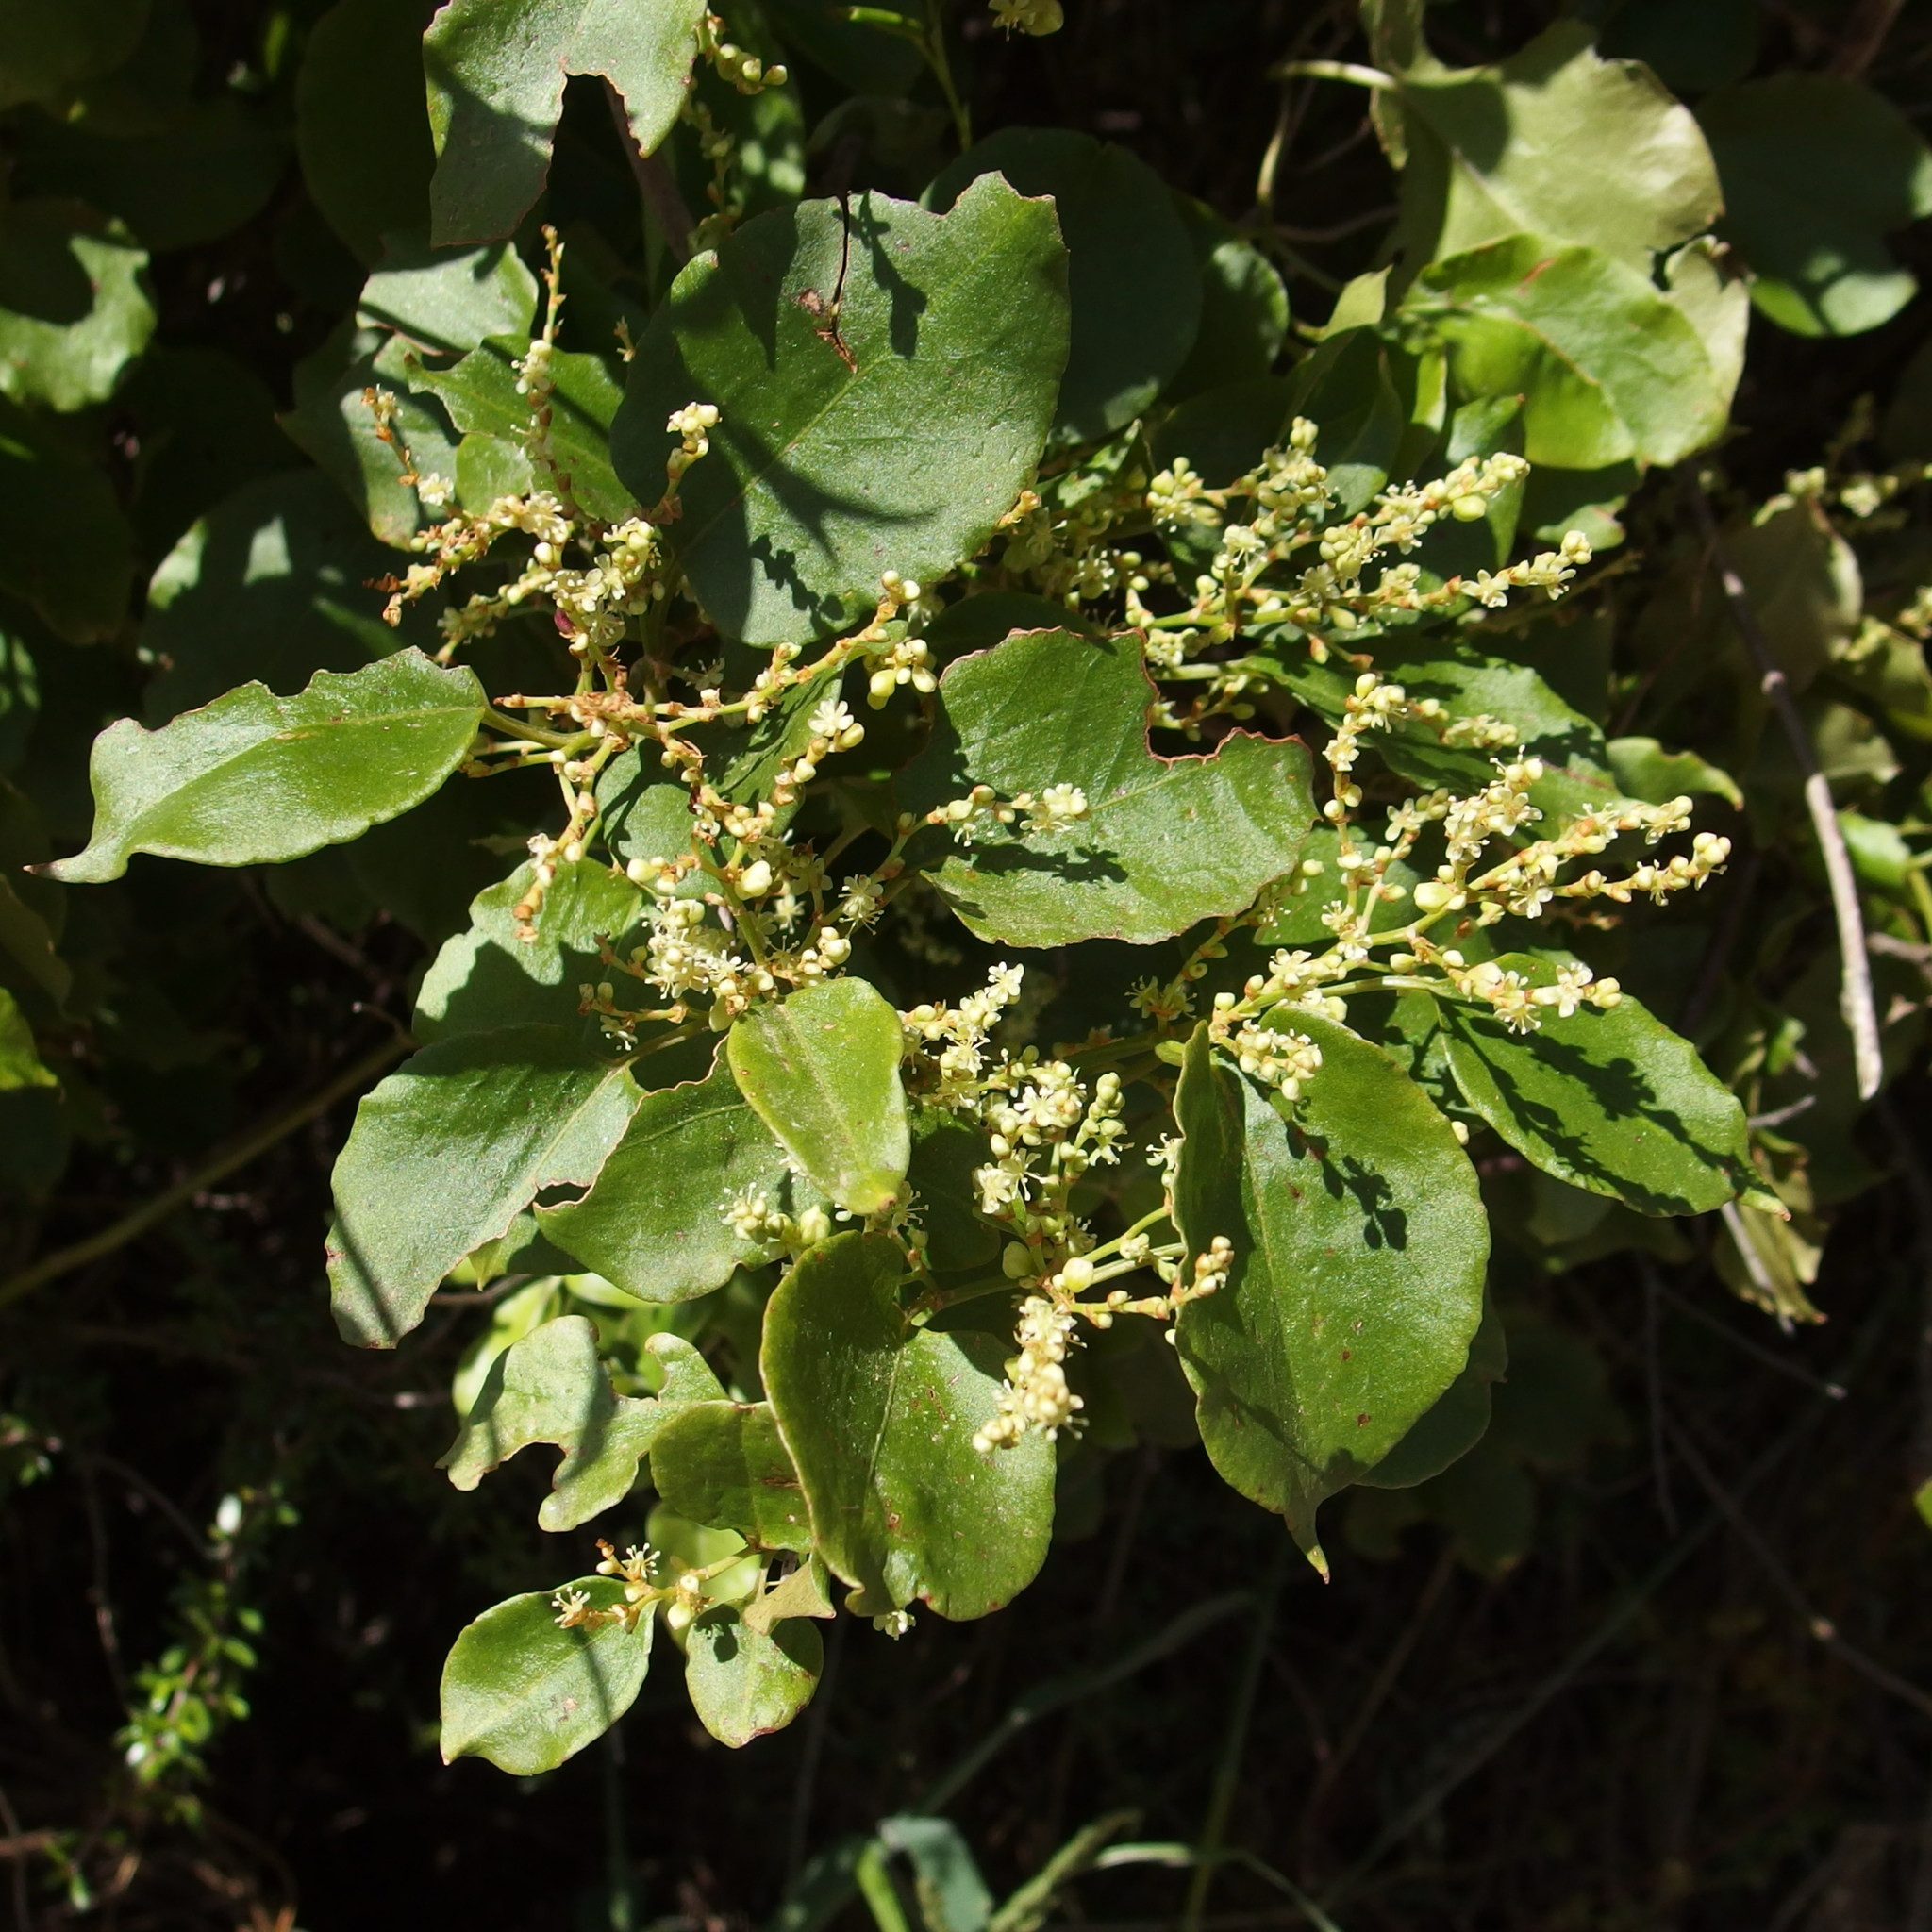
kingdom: Plantae
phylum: Tracheophyta
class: Magnoliopsida
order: Caryophyllales
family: Polygonaceae
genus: Muehlenbeckia
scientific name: Muehlenbeckia australis
